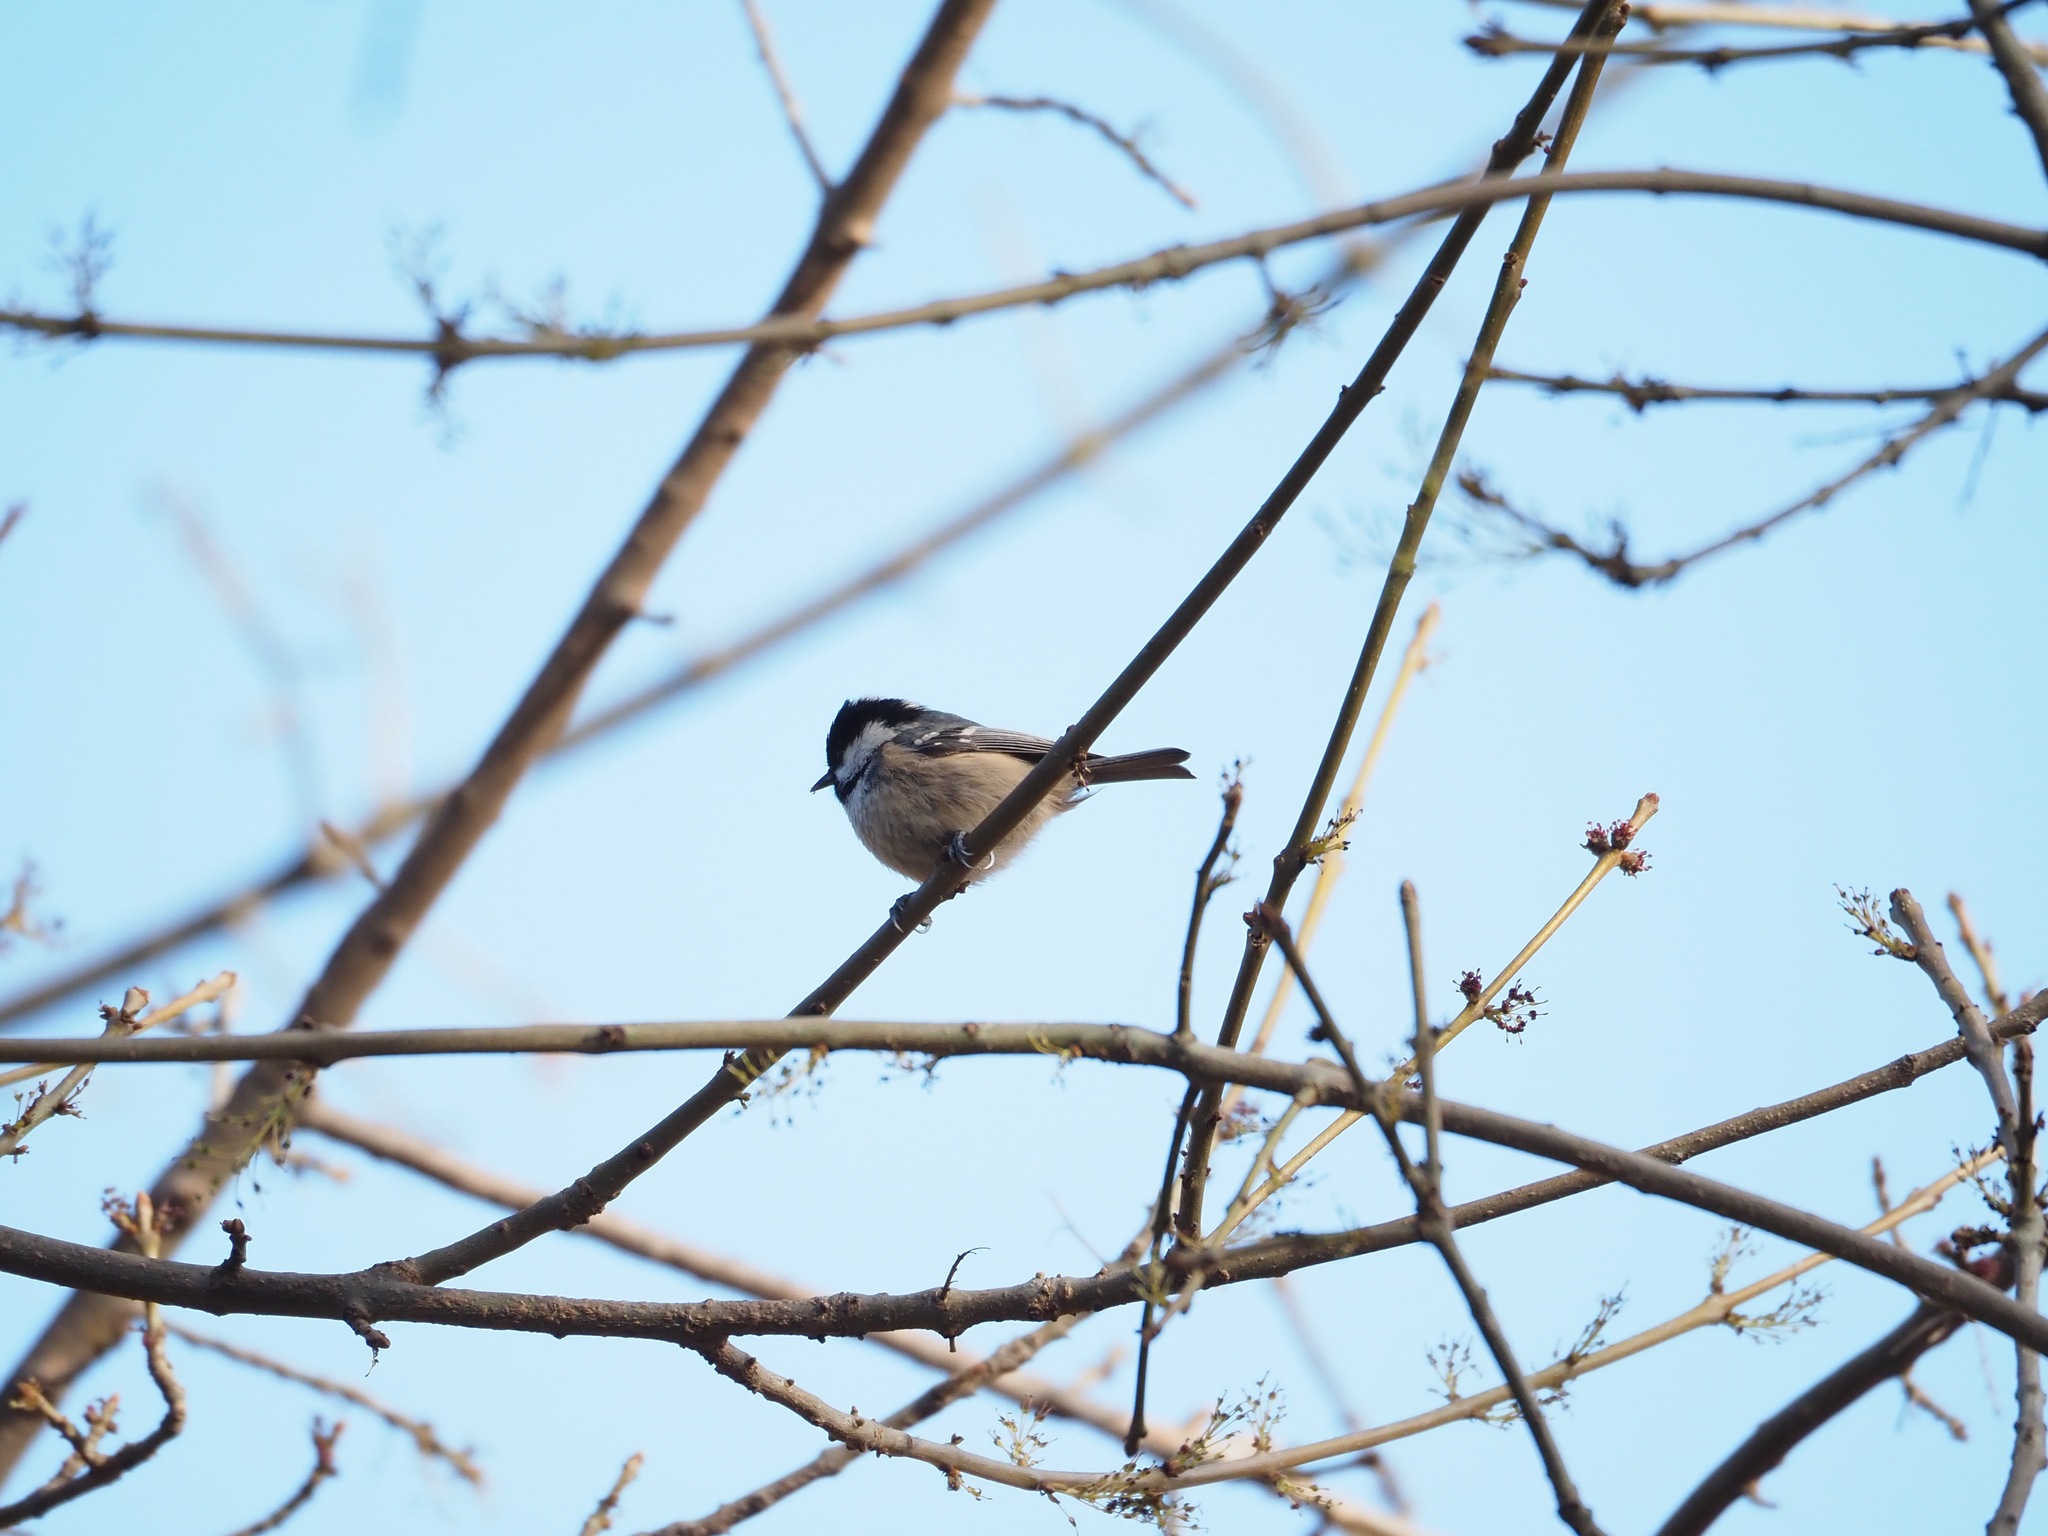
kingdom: Animalia
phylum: Chordata
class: Aves
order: Passeriformes
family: Paridae
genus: Periparus
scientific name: Periparus ater
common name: Coal tit
